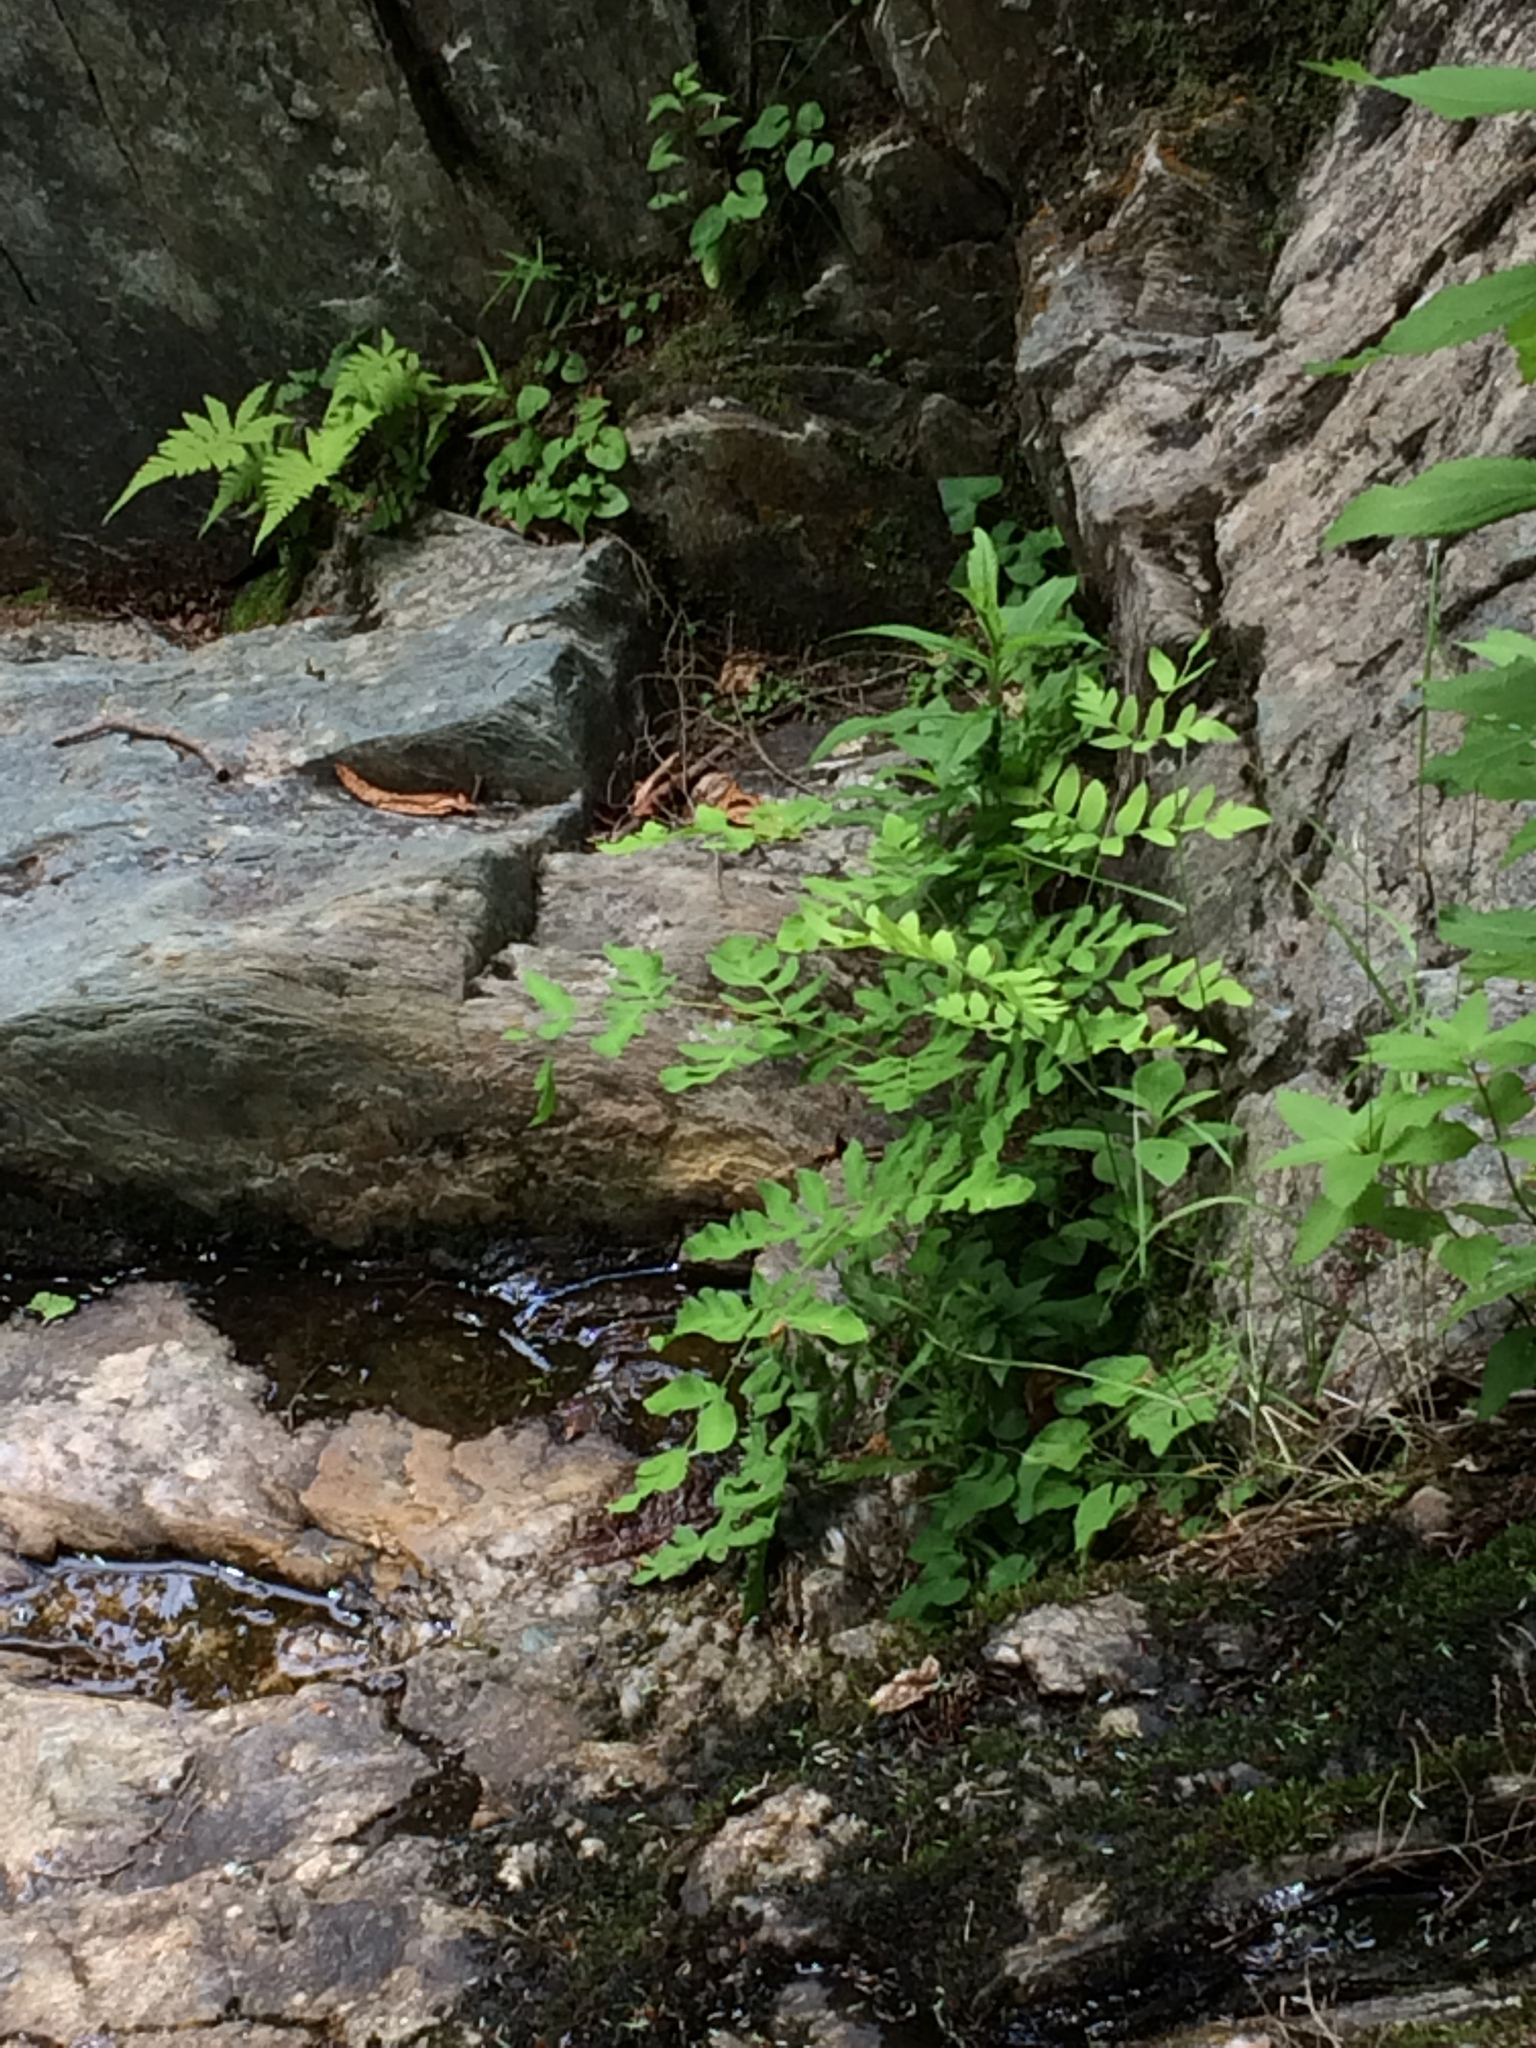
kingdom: Plantae
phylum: Tracheophyta
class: Polypodiopsida
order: Osmundales
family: Osmundaceae
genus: Osmunda
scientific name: Osmunda spectabilis
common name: American royal fern
